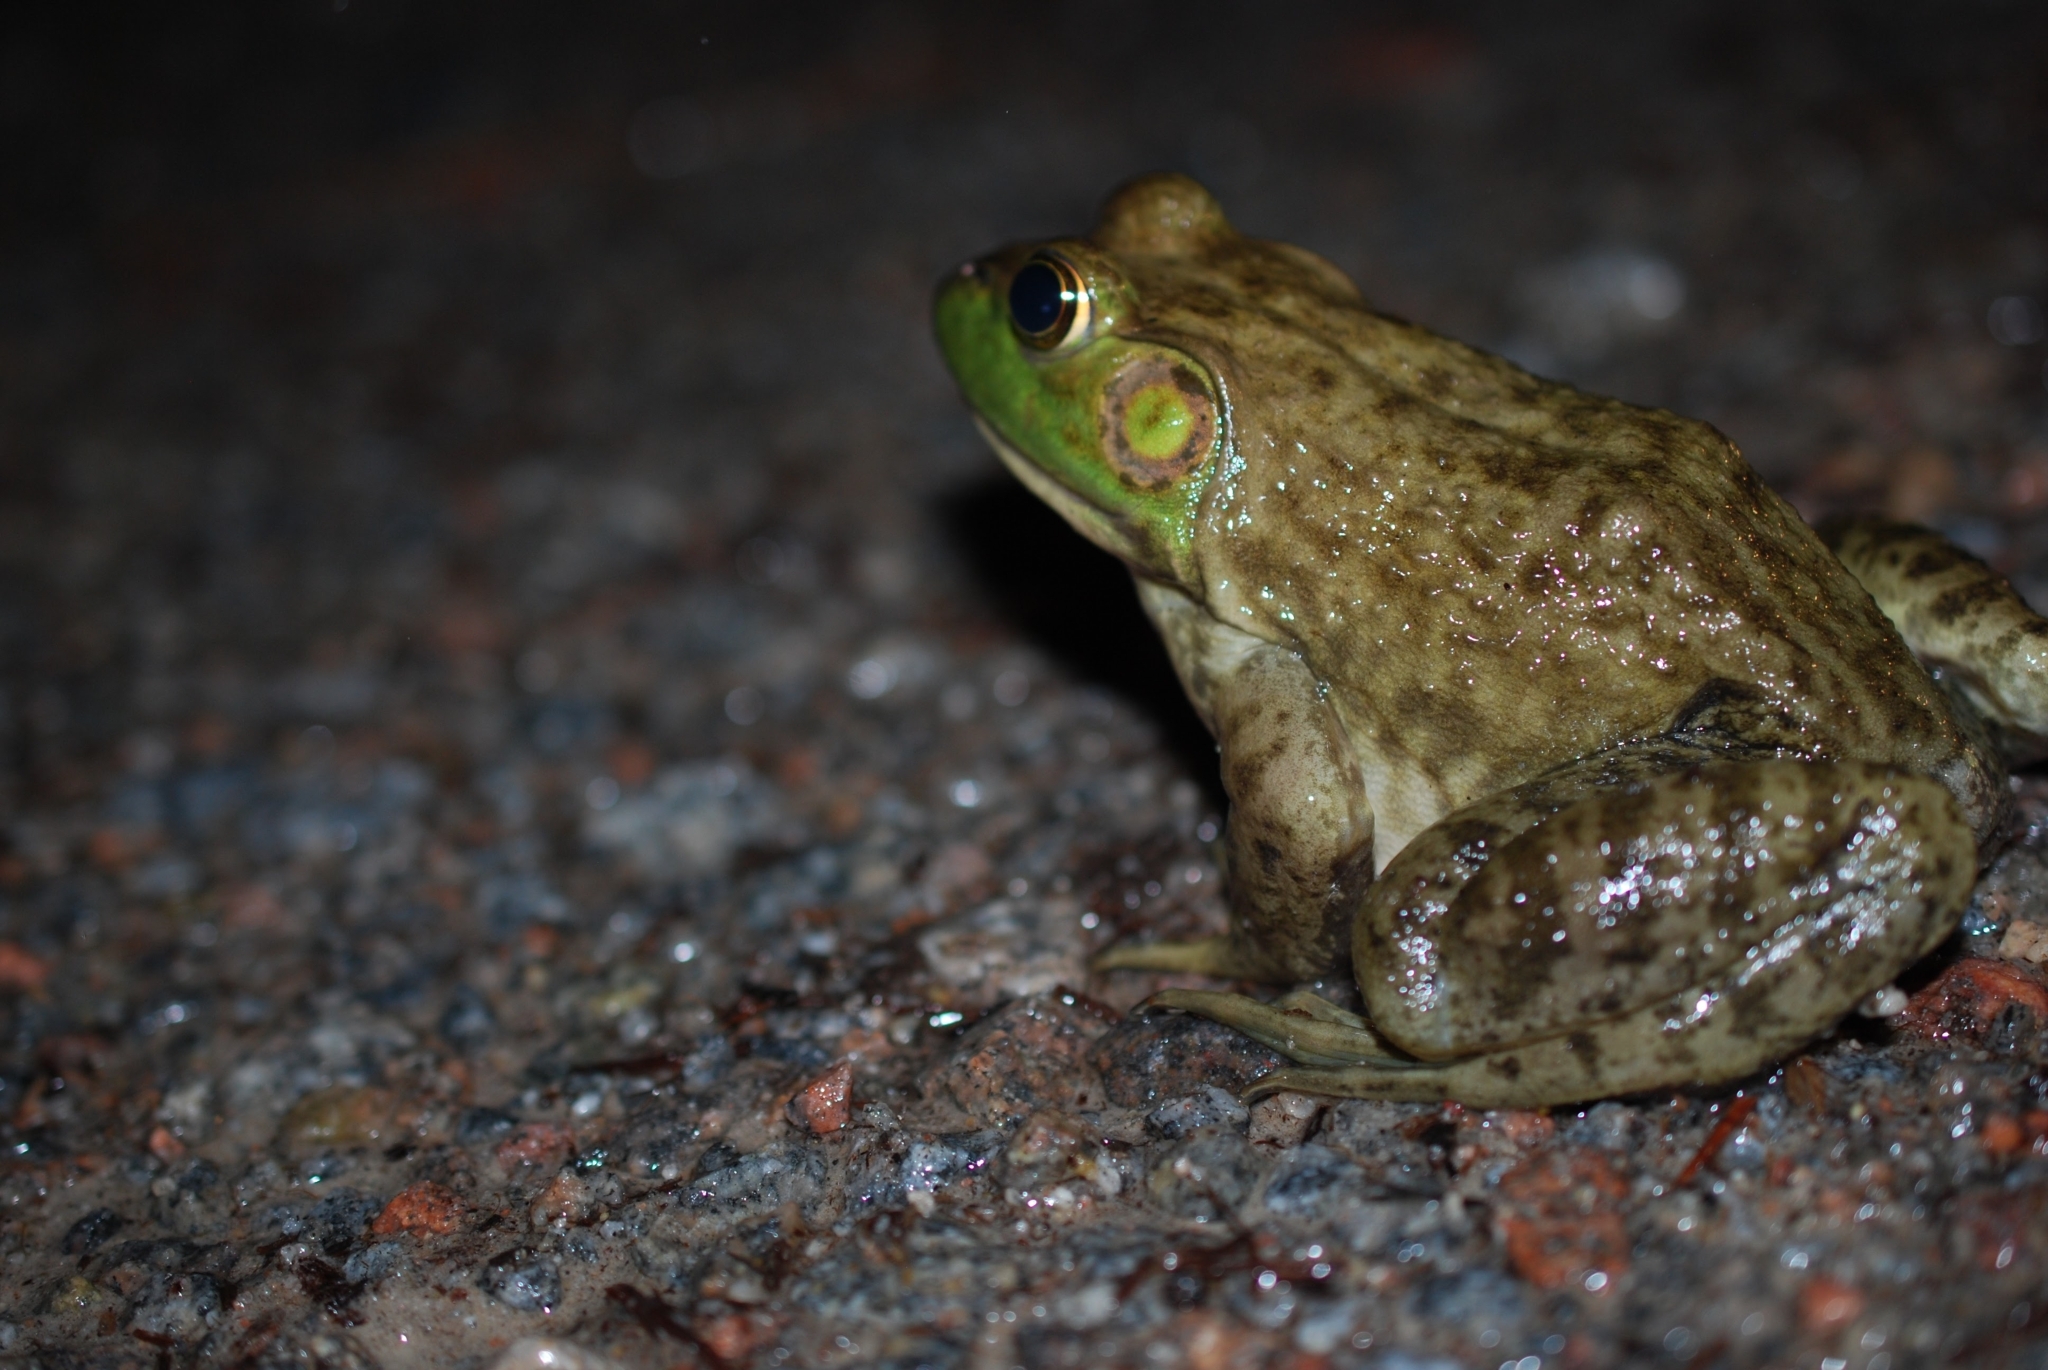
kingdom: Animalia
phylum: Chordata
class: Amphibia
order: Anura
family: Ranidae
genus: Lithobates
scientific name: Lithobates catesbeianus
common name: American bullfrog
